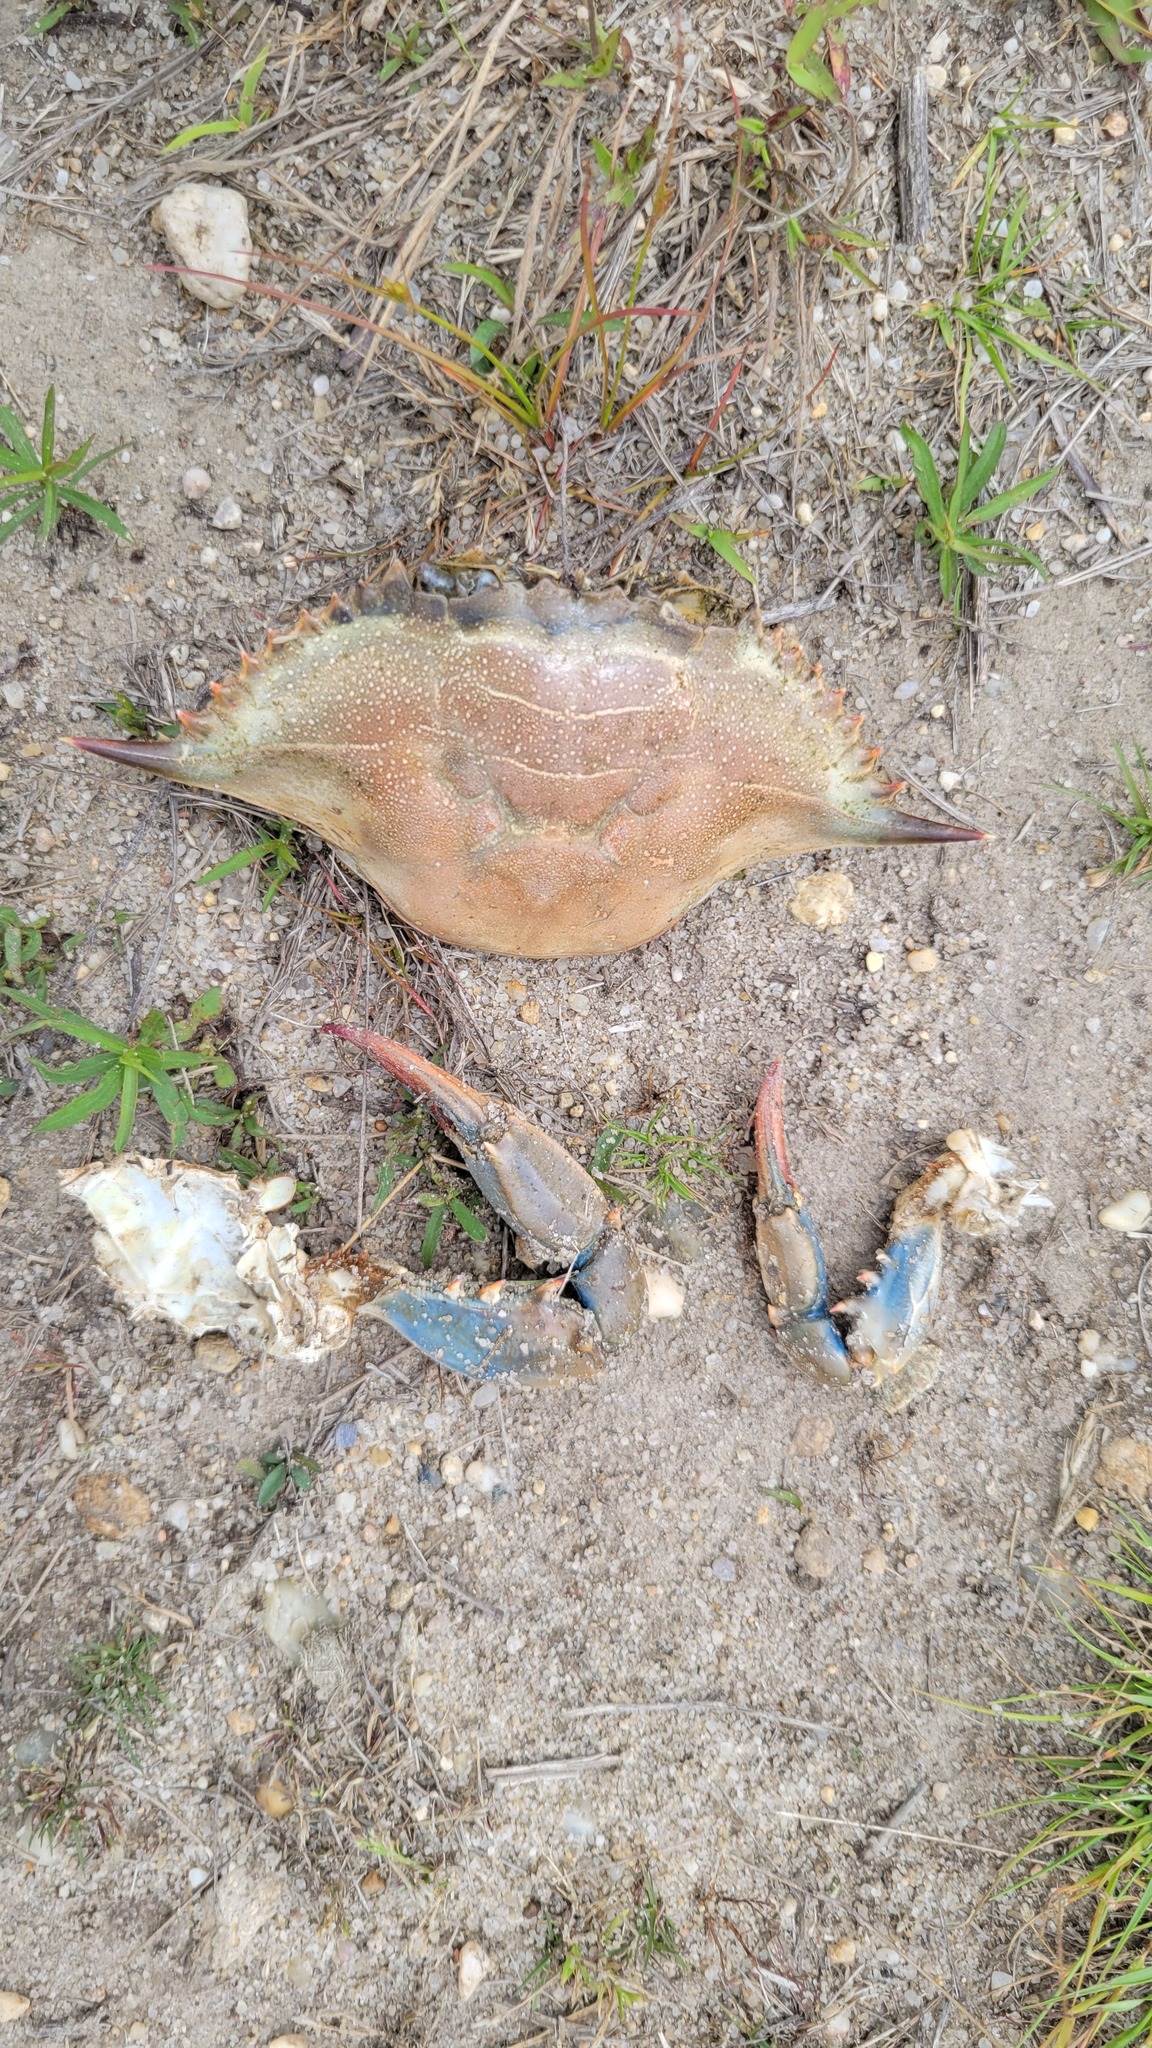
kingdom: Animalia
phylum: Arthropoda
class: Malacostraca
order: Decapoda
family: Portunidae
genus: Callinectes
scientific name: Callinectes sapidus
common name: Blue crab
